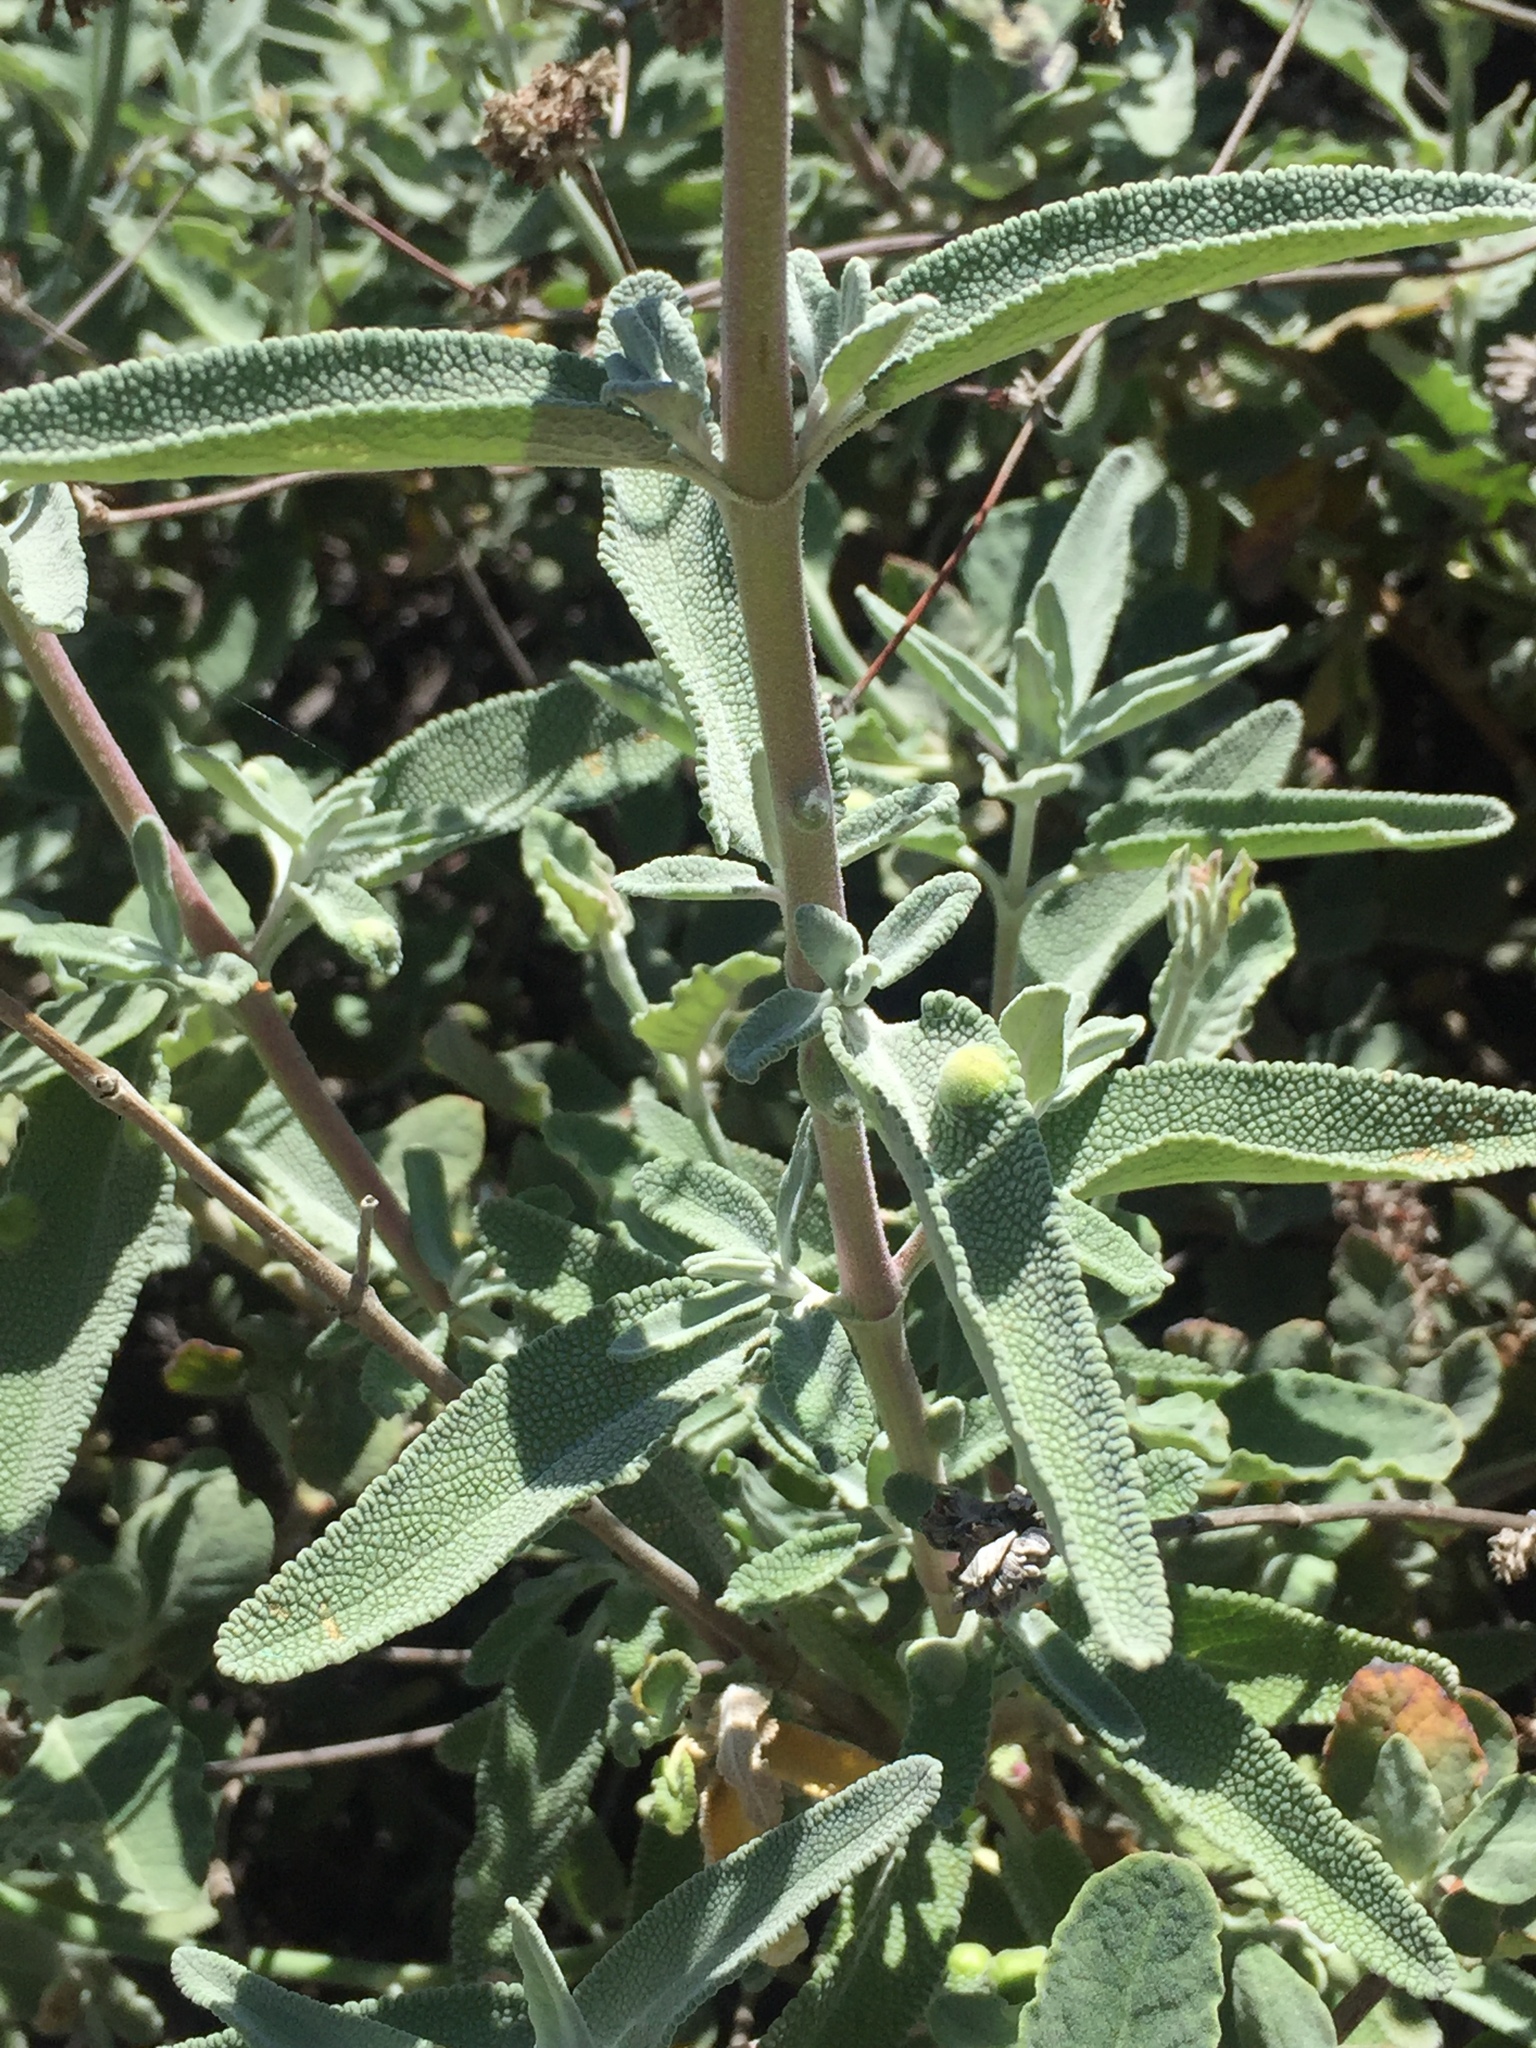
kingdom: Plantae
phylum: Tracheophyta
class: Magnoliopsida
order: Lamiales
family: Lamiaceae
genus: Salvia
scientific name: Salvia leucophylla
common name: Purple sage
